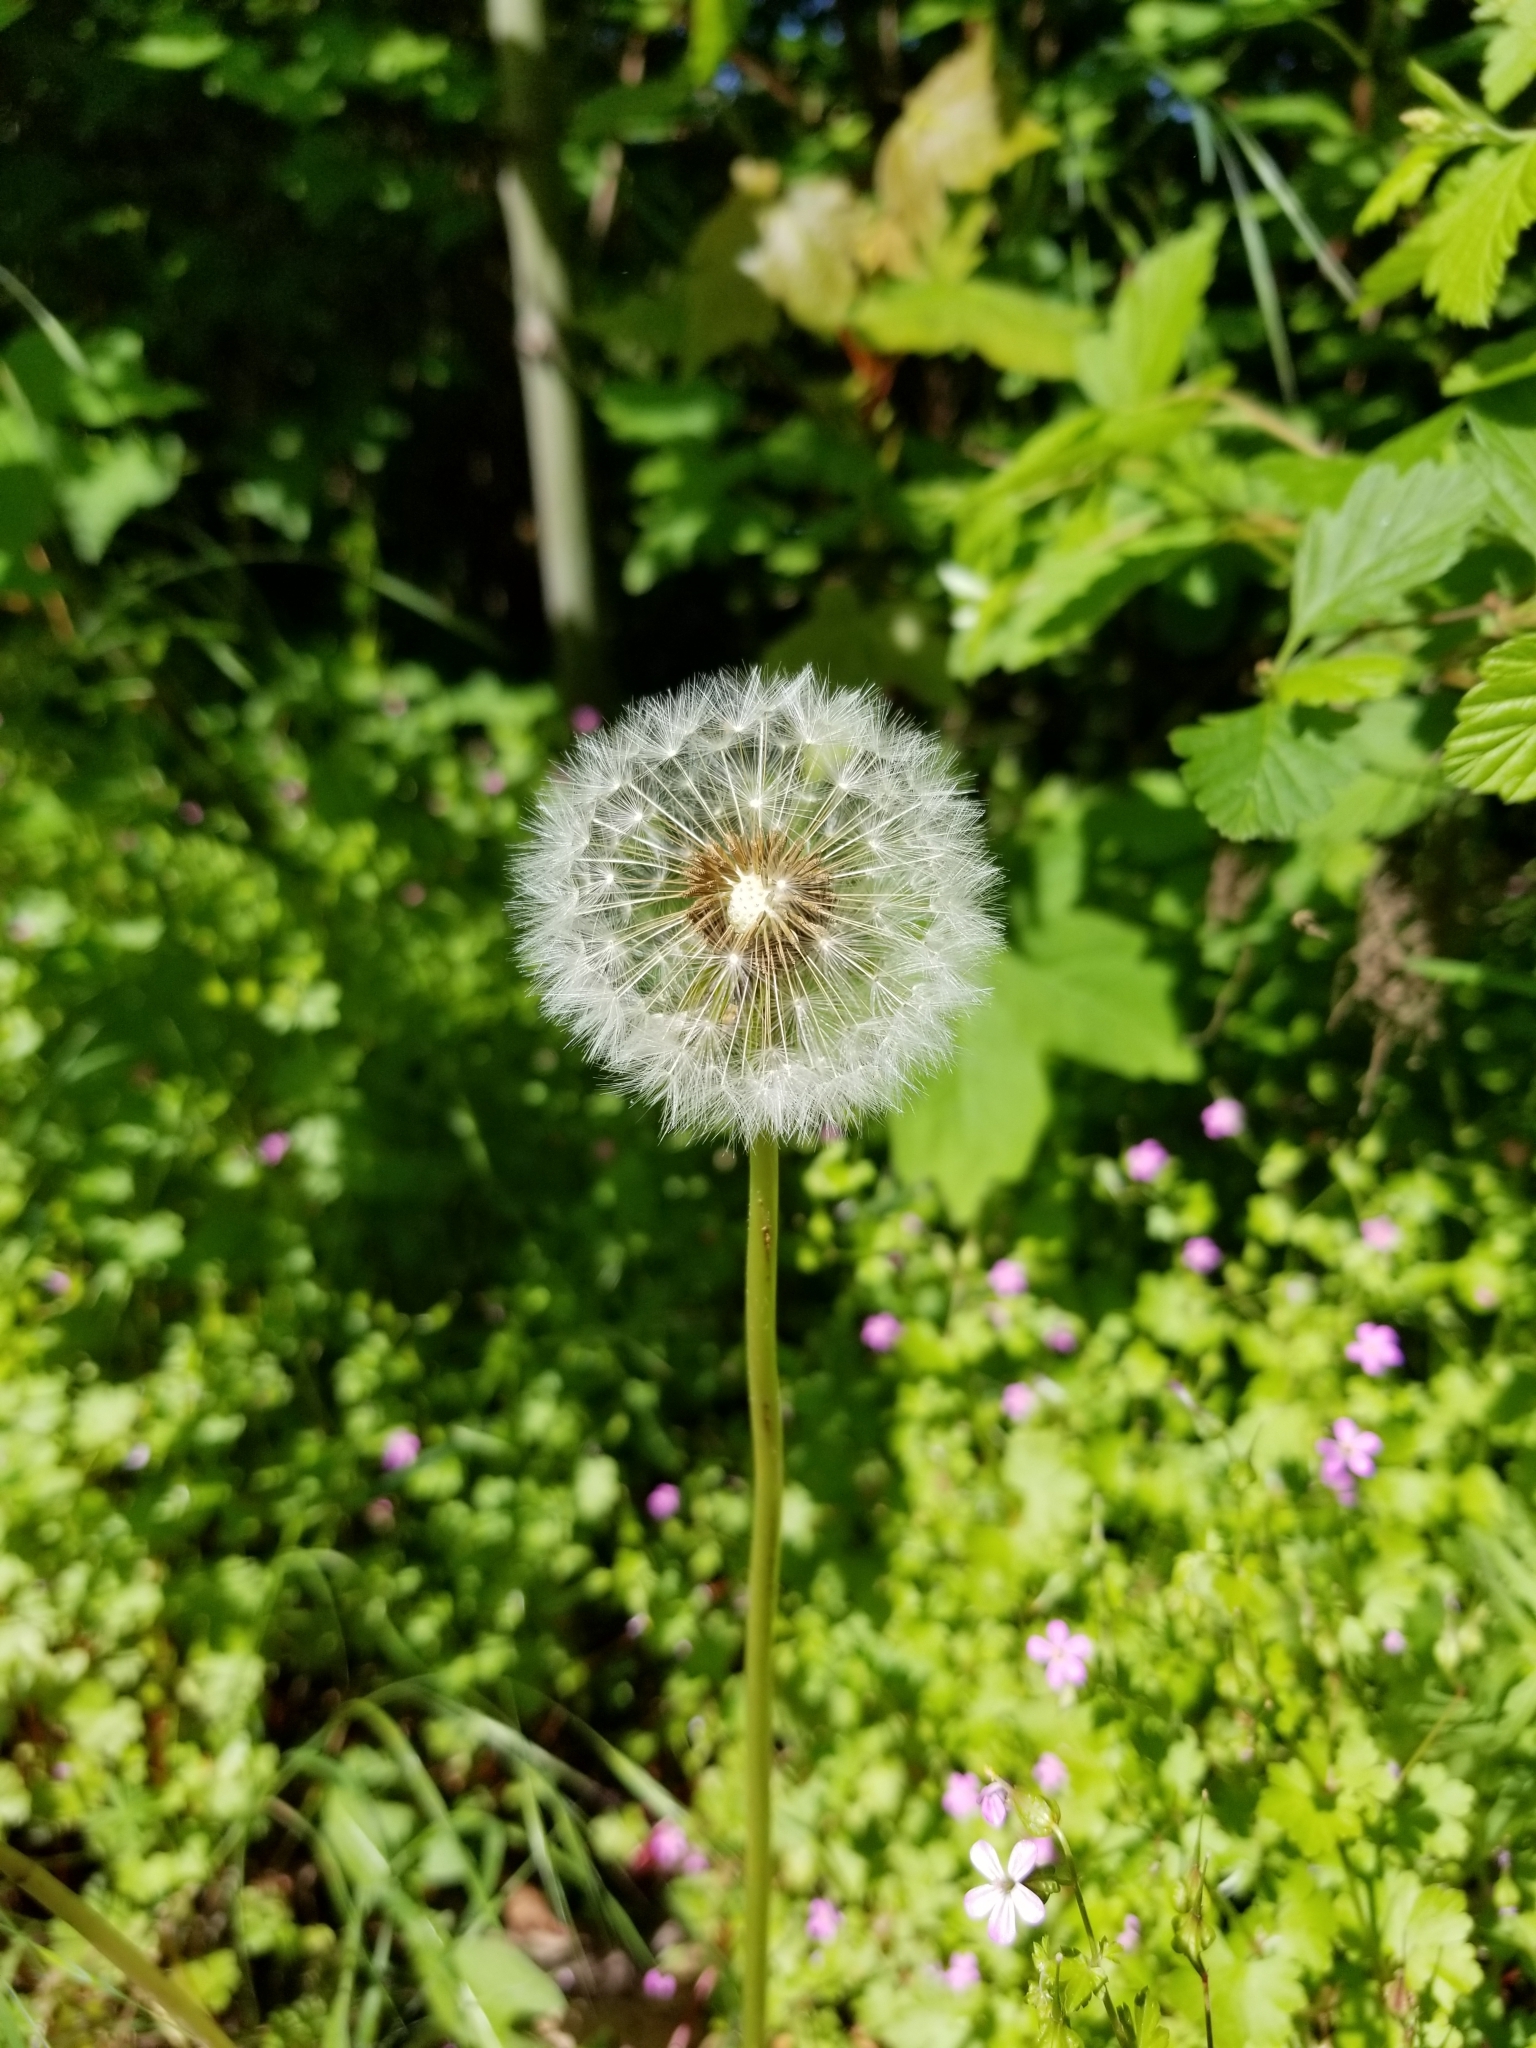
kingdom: Plantae
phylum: Tracheophyta
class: Magnoliopsida
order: Asterales
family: Asteraceae
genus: Taraxacum
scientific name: Taraxacum officinale
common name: Common dandelion
